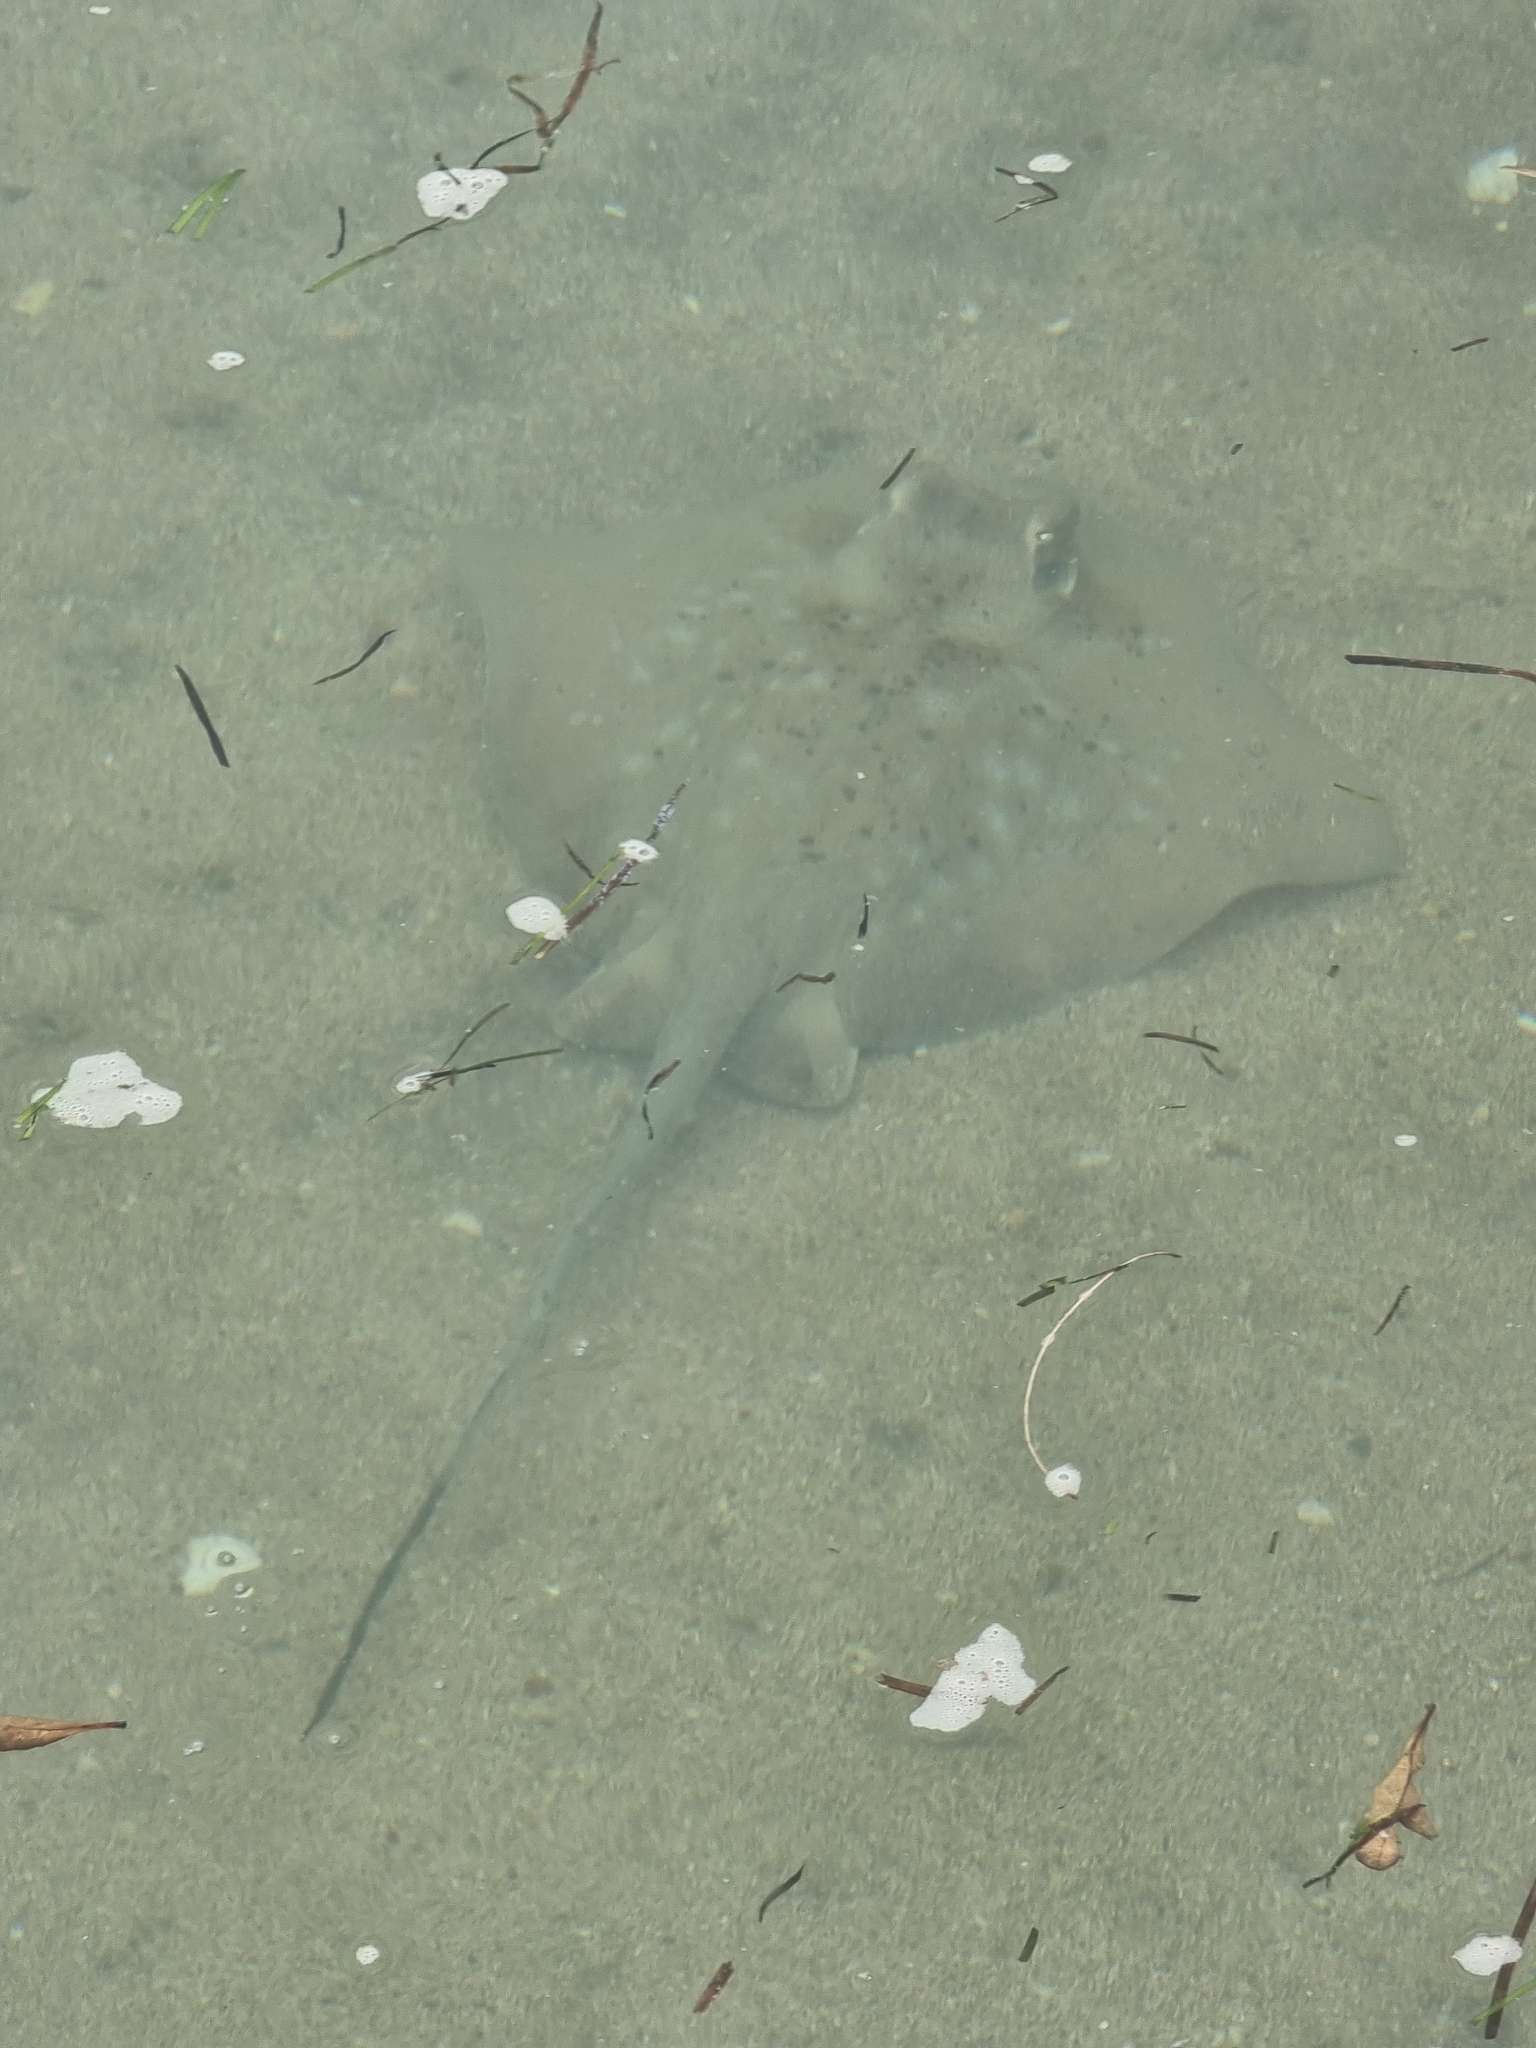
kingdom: Animalia
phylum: Chordata
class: Elasmobranchii
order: Myliobatiformes
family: Dasyatidae
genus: Neotrygon
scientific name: Neotrygon kuhlii
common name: Bluespotted stingray
